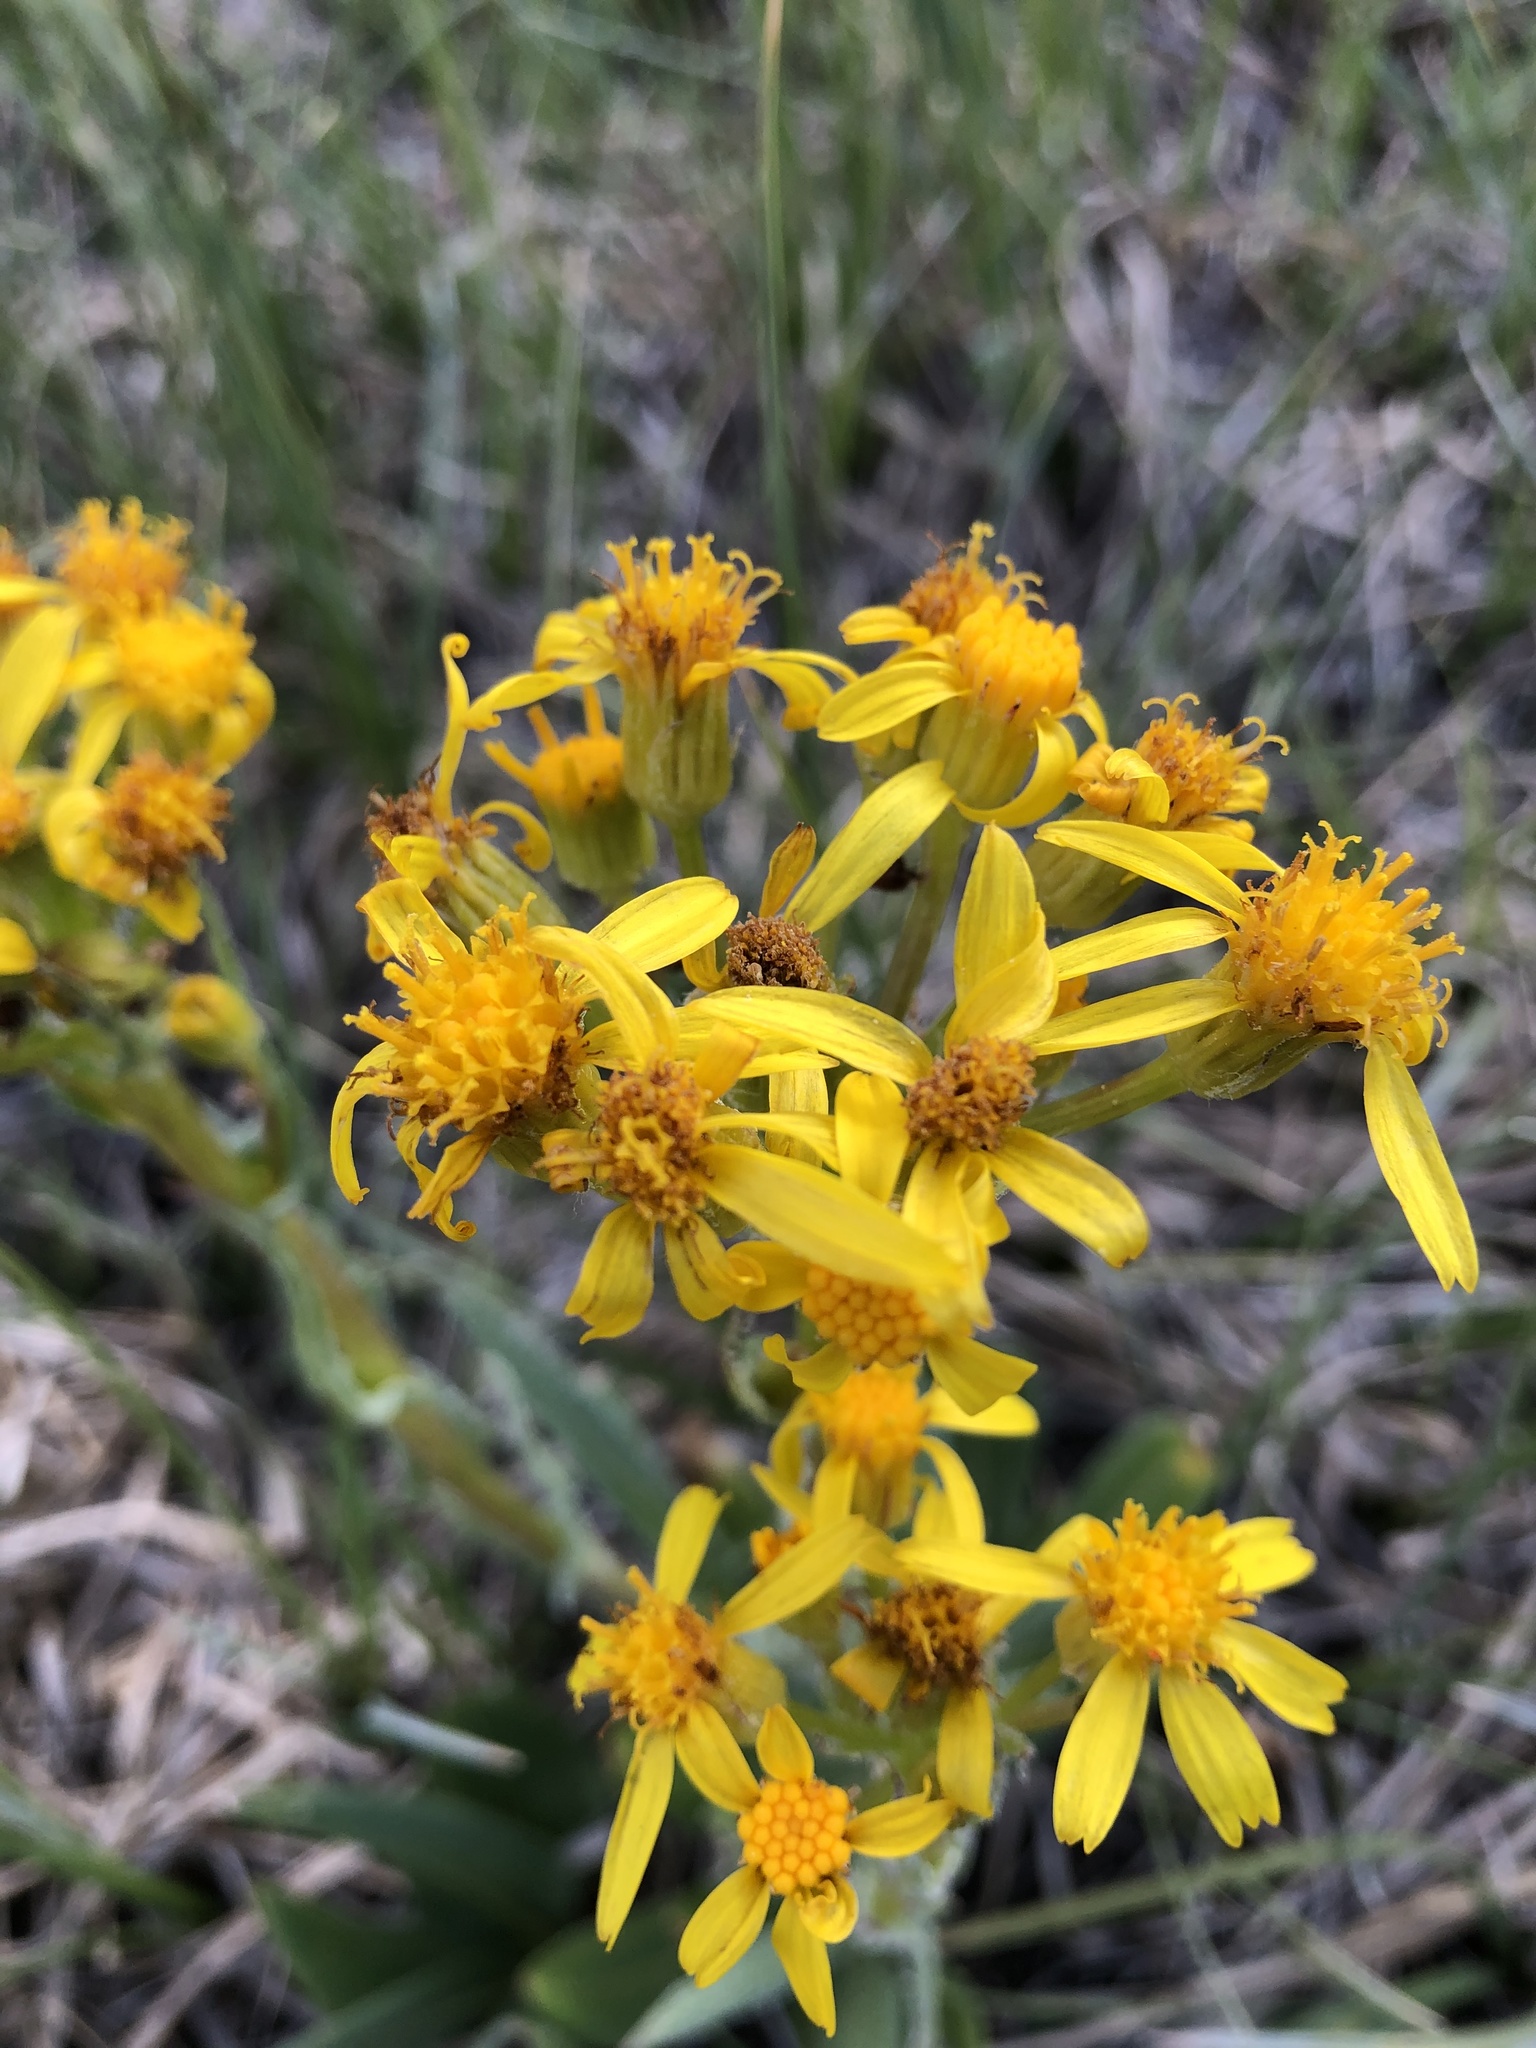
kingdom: Plantae
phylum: Tracheophyta
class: Magnoliopsida
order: Asterales
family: Asteraceae
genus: Senecio
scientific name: Senecio integerrimus
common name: Gaugeplant
